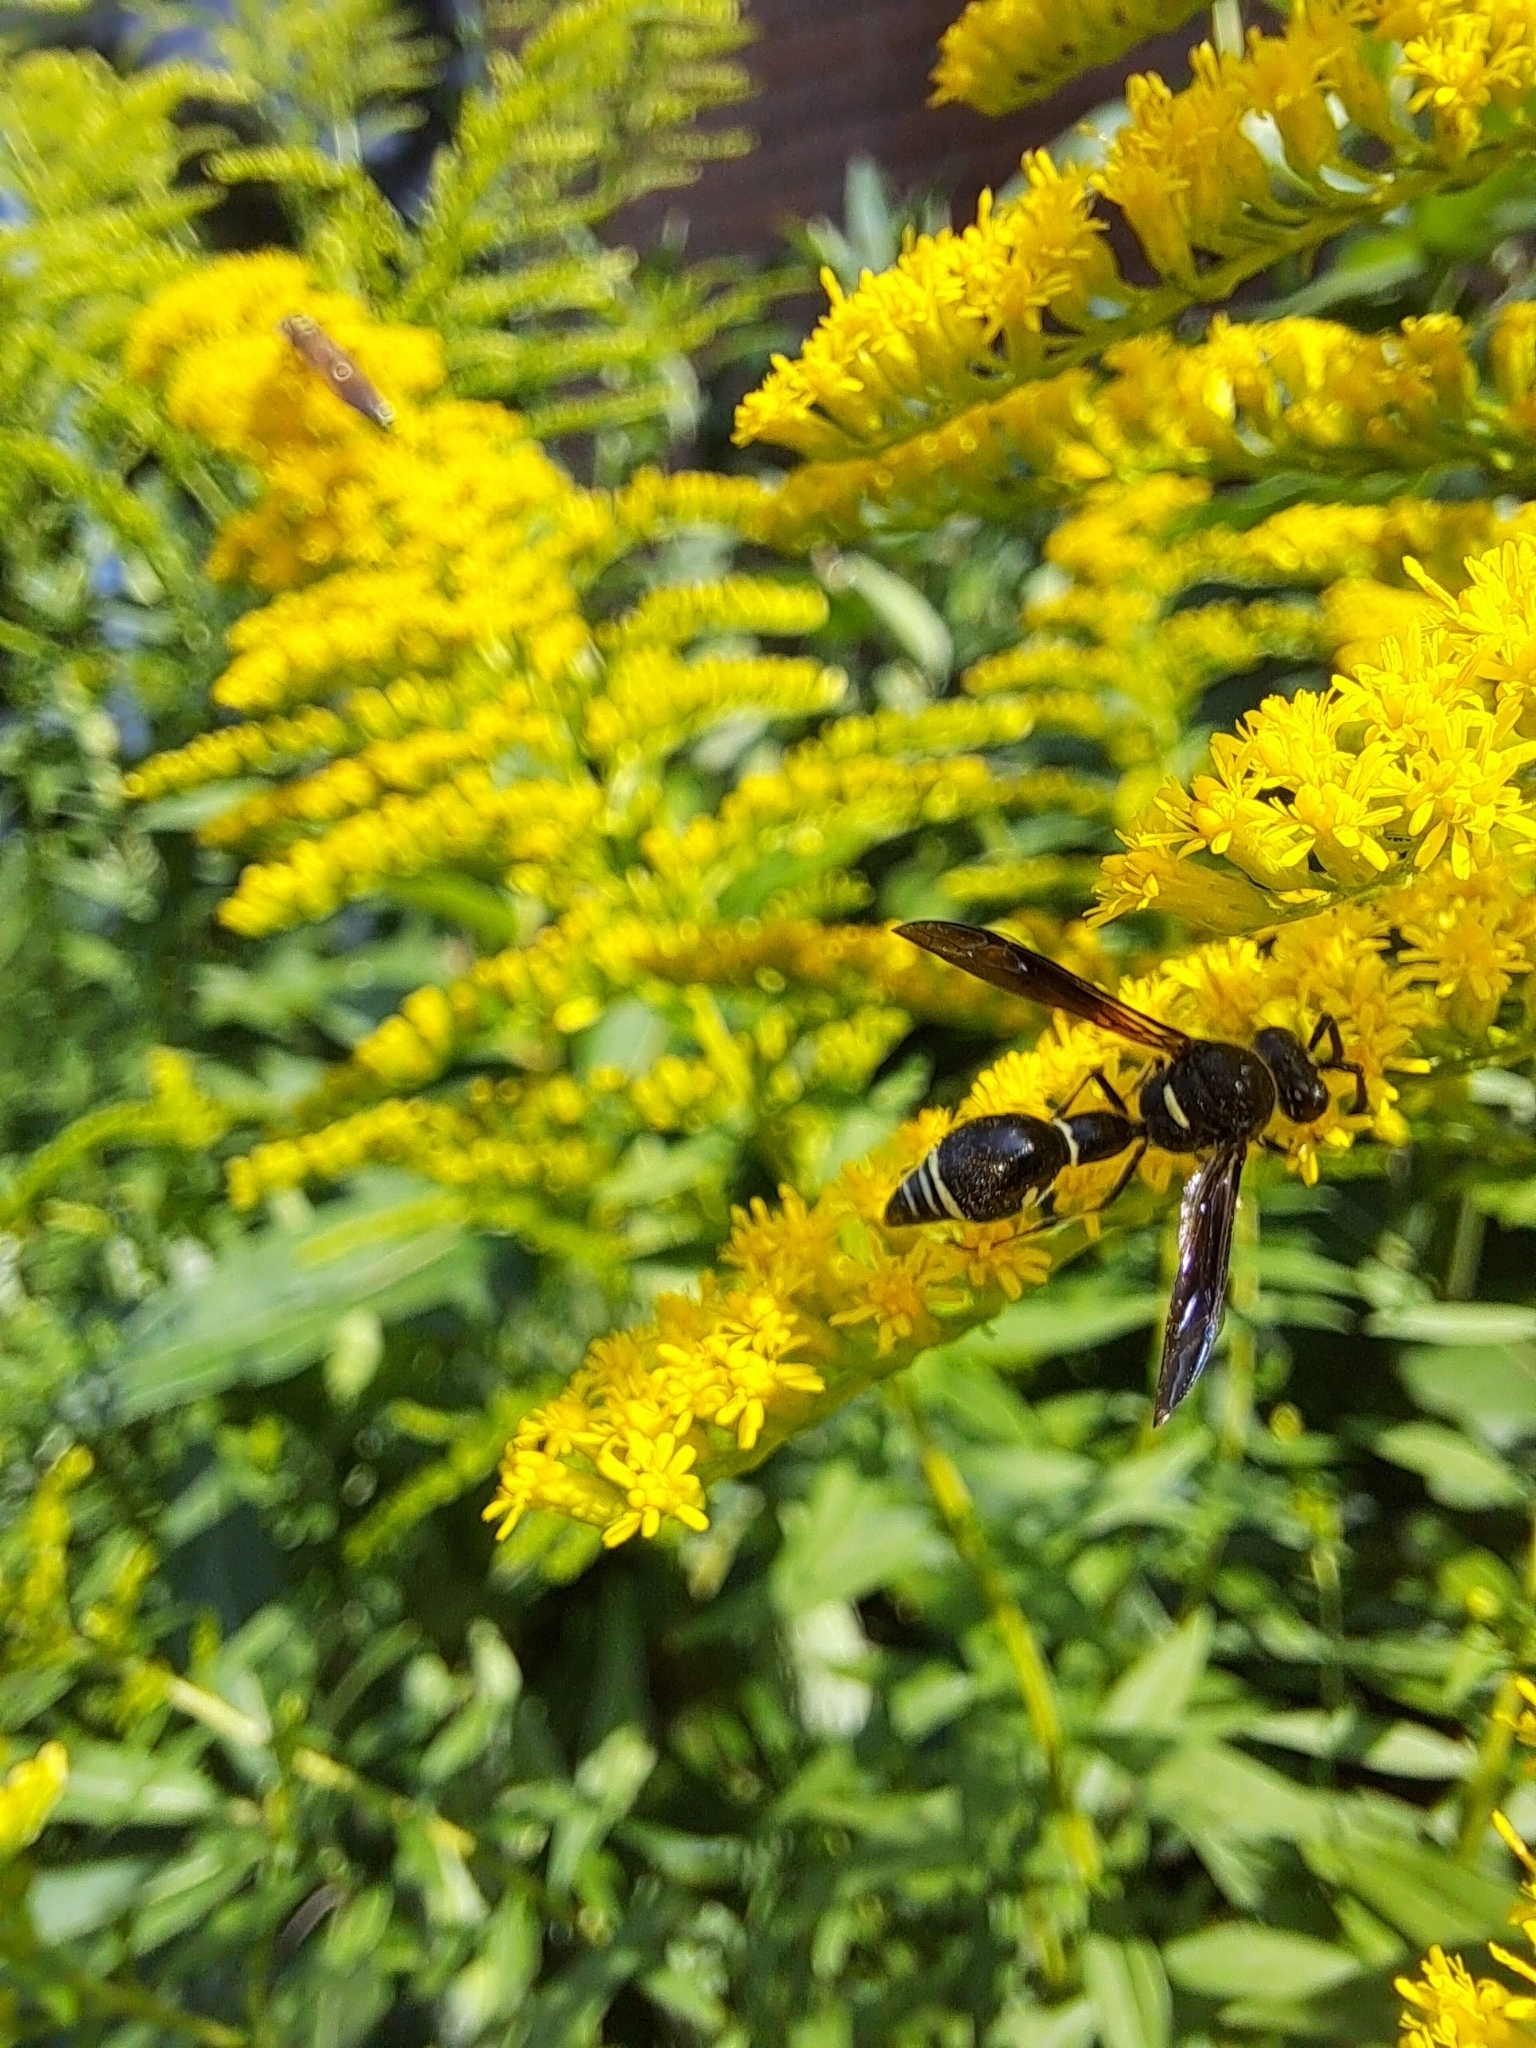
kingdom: Animalia
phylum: Arthropoda
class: Insecta
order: Hymenoptera
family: Vespidae
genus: Eumenes
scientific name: Eumenes fraternus
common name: Fraternal potter wasp
